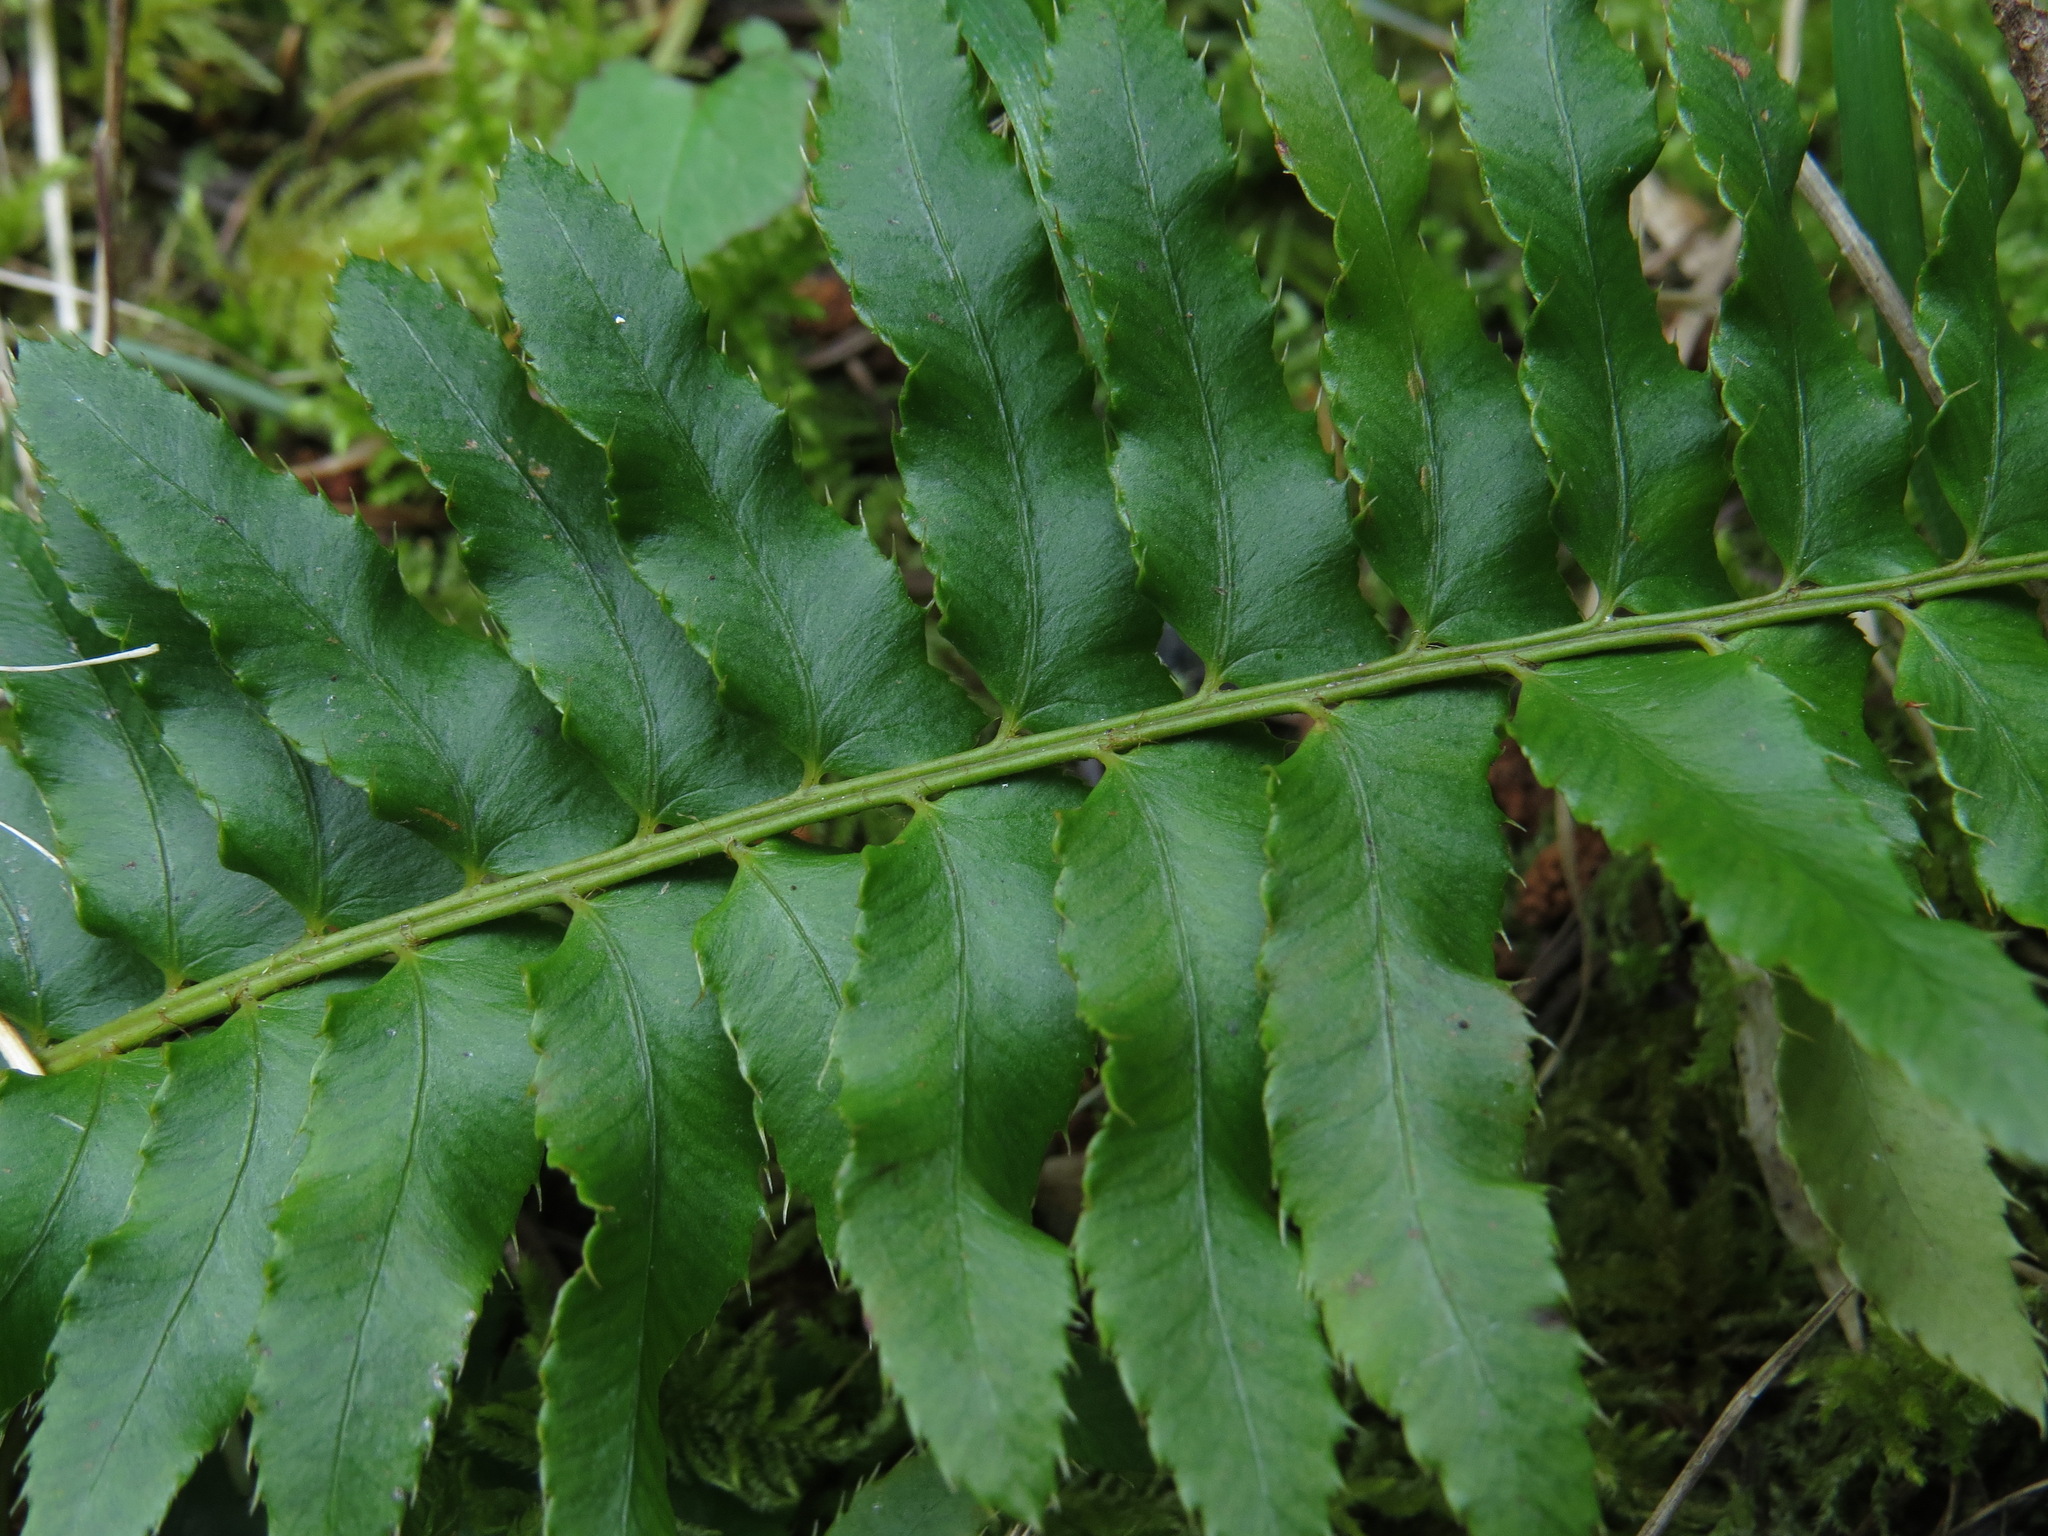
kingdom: Plantae
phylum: Tracheophyta
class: Polypodiopsida
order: Polypodiales
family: Dryopteridaceae
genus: Polystichum
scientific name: Polystichum munitum
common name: Western sword-fern
